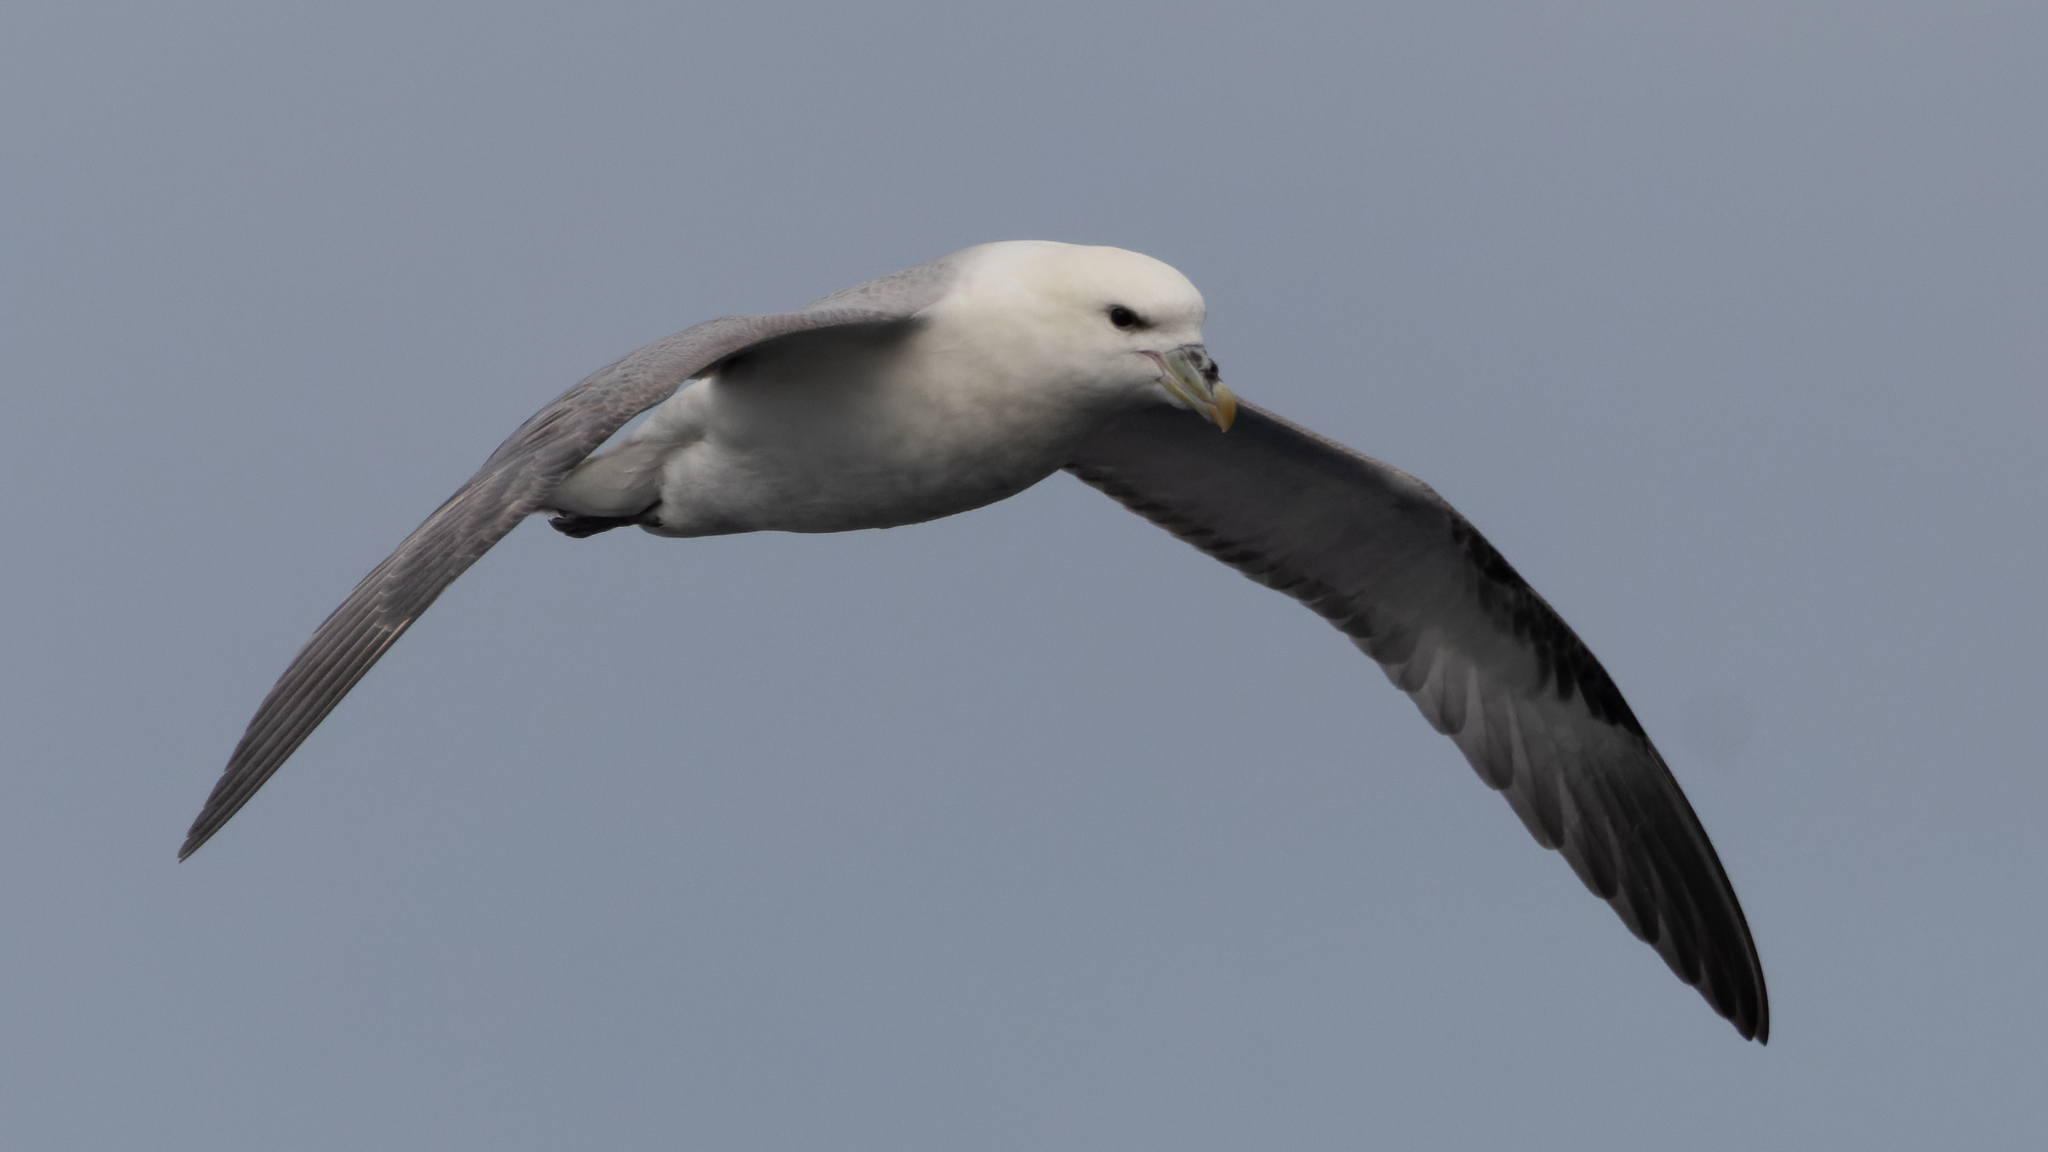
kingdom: Animalia
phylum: Chordata
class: Aves
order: Procellariiformes
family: Procellariidae
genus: Fulmarus
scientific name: Fulmarus glacialis
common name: Northern fulmar
